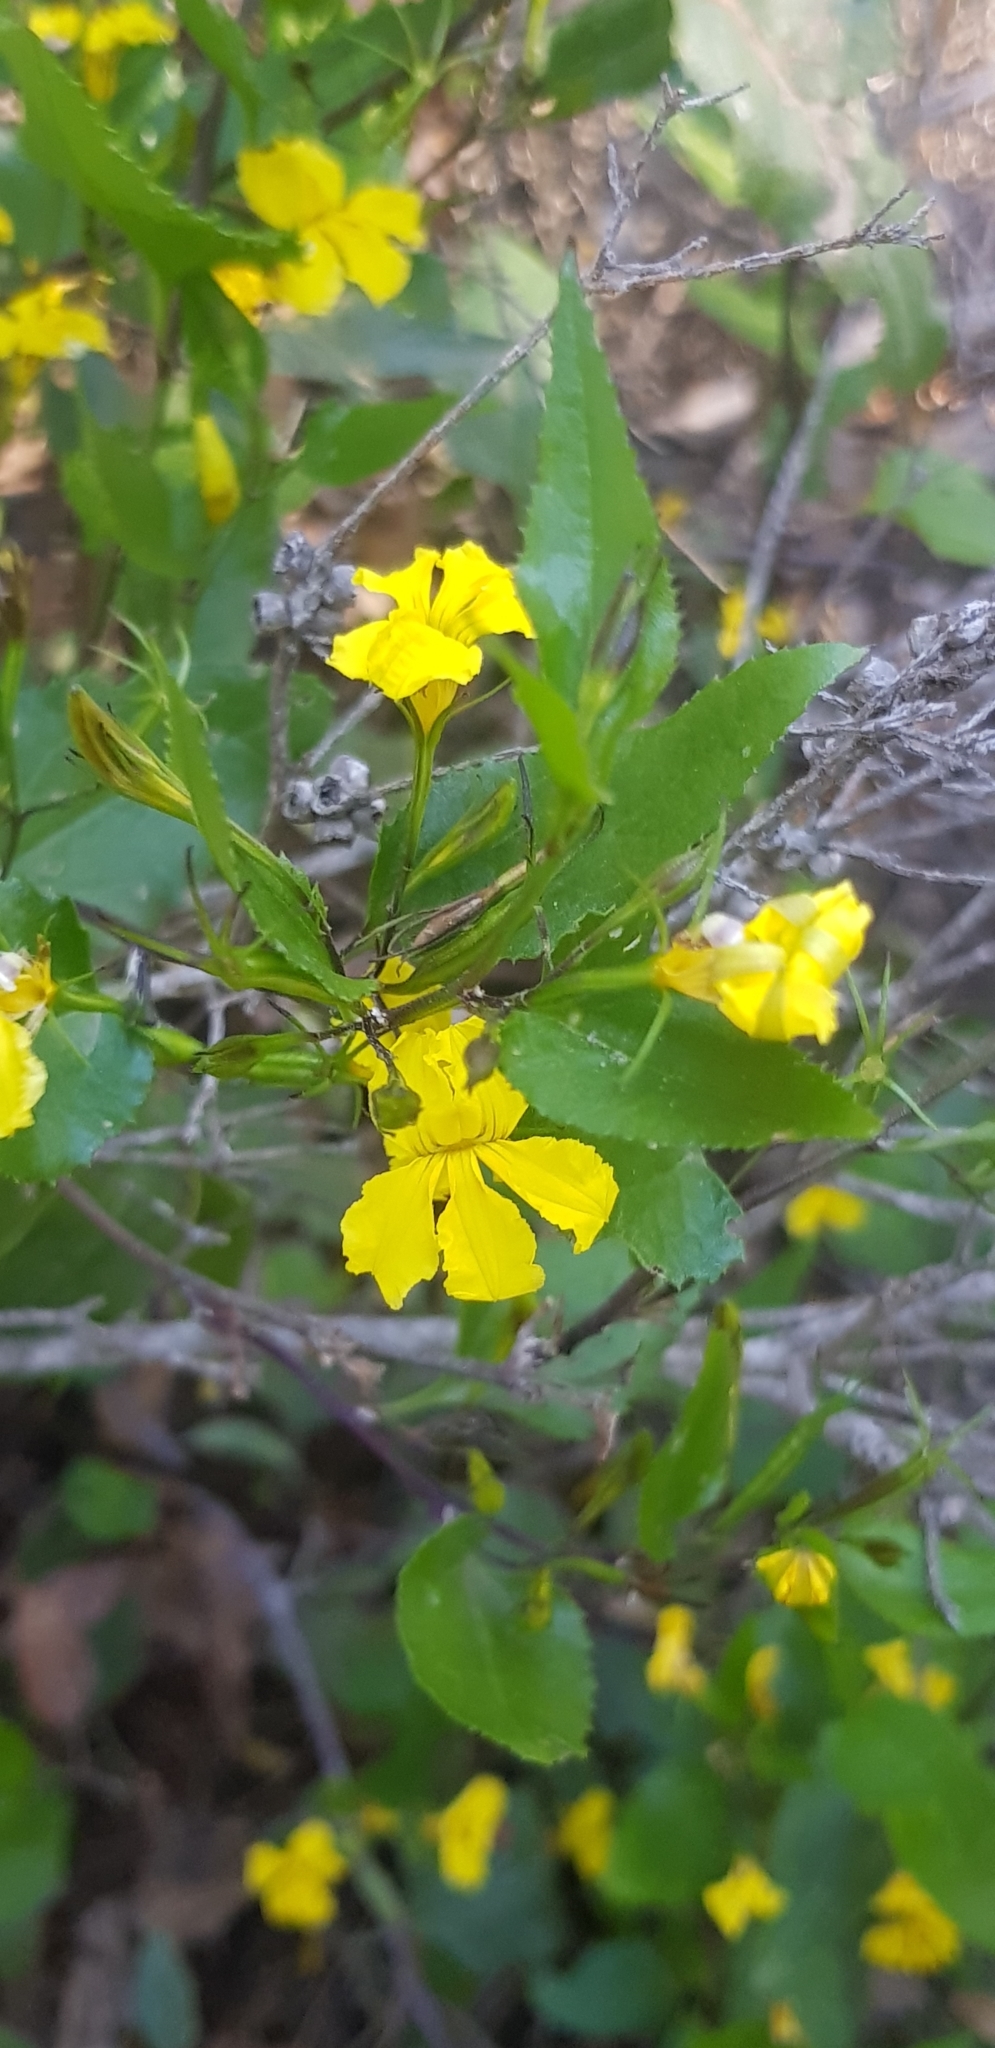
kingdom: Plantae
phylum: Tracheophyta
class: Magnoliopsida
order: Asterales
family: Goodeniaceae
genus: Goodenia
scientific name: Goodenia ovata
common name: Hop goodenia
